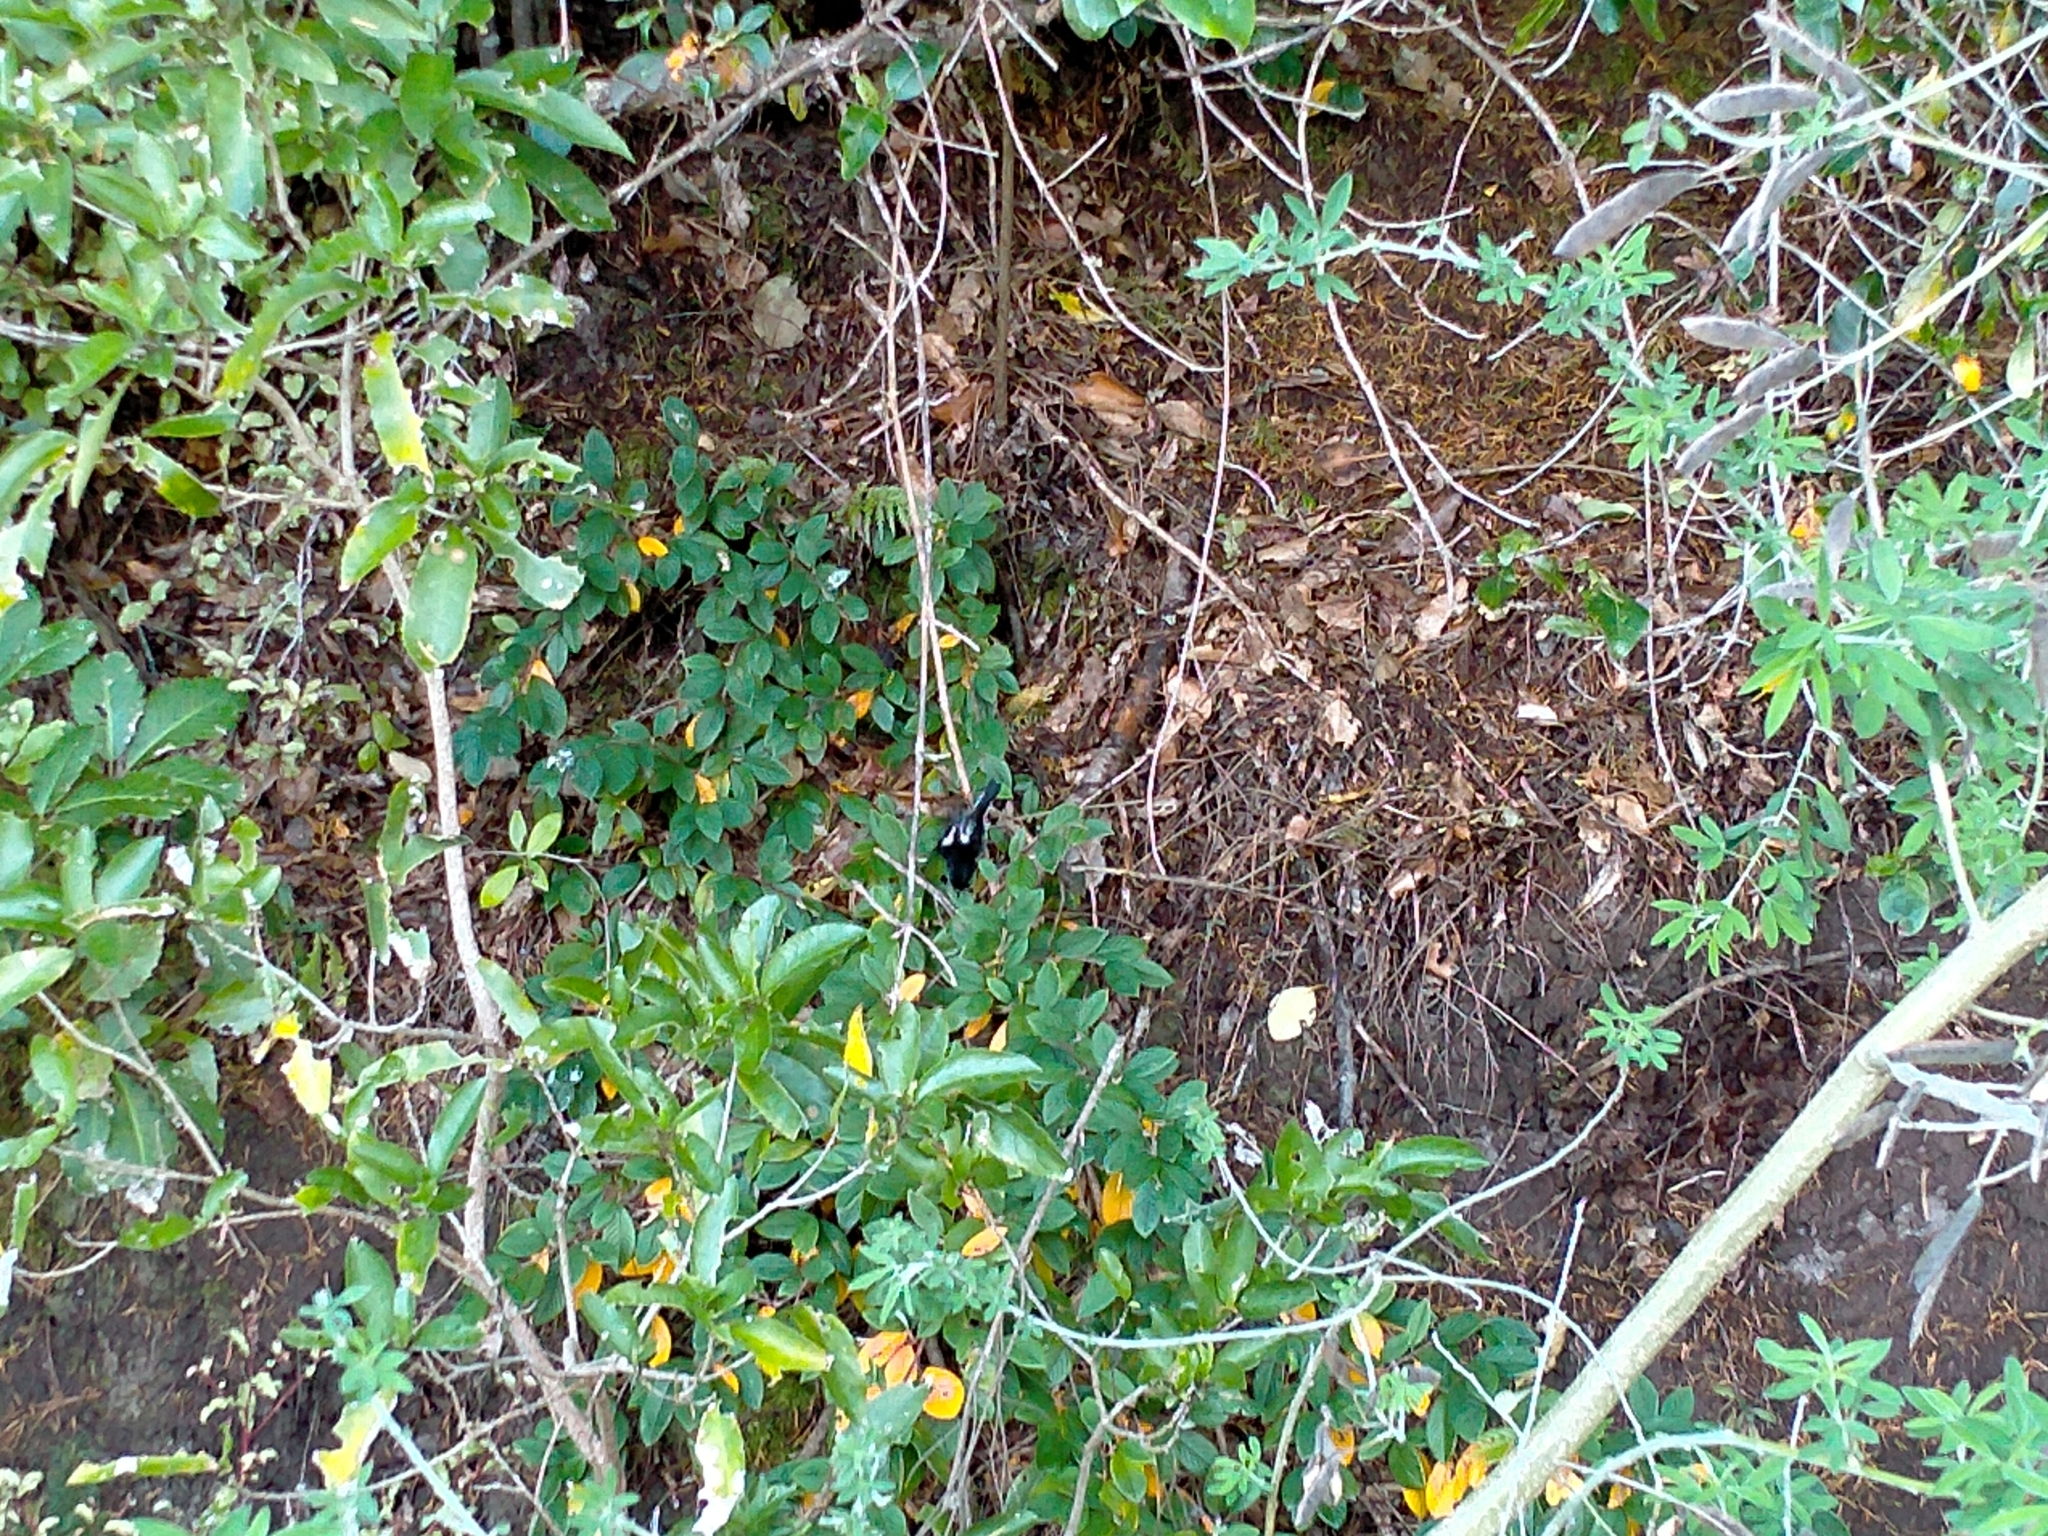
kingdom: Animalia
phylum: Chordata
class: Aves
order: Passeriformes
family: Petroicidae
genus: Petroica
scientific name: Petroica macrocephala
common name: Tomtit
